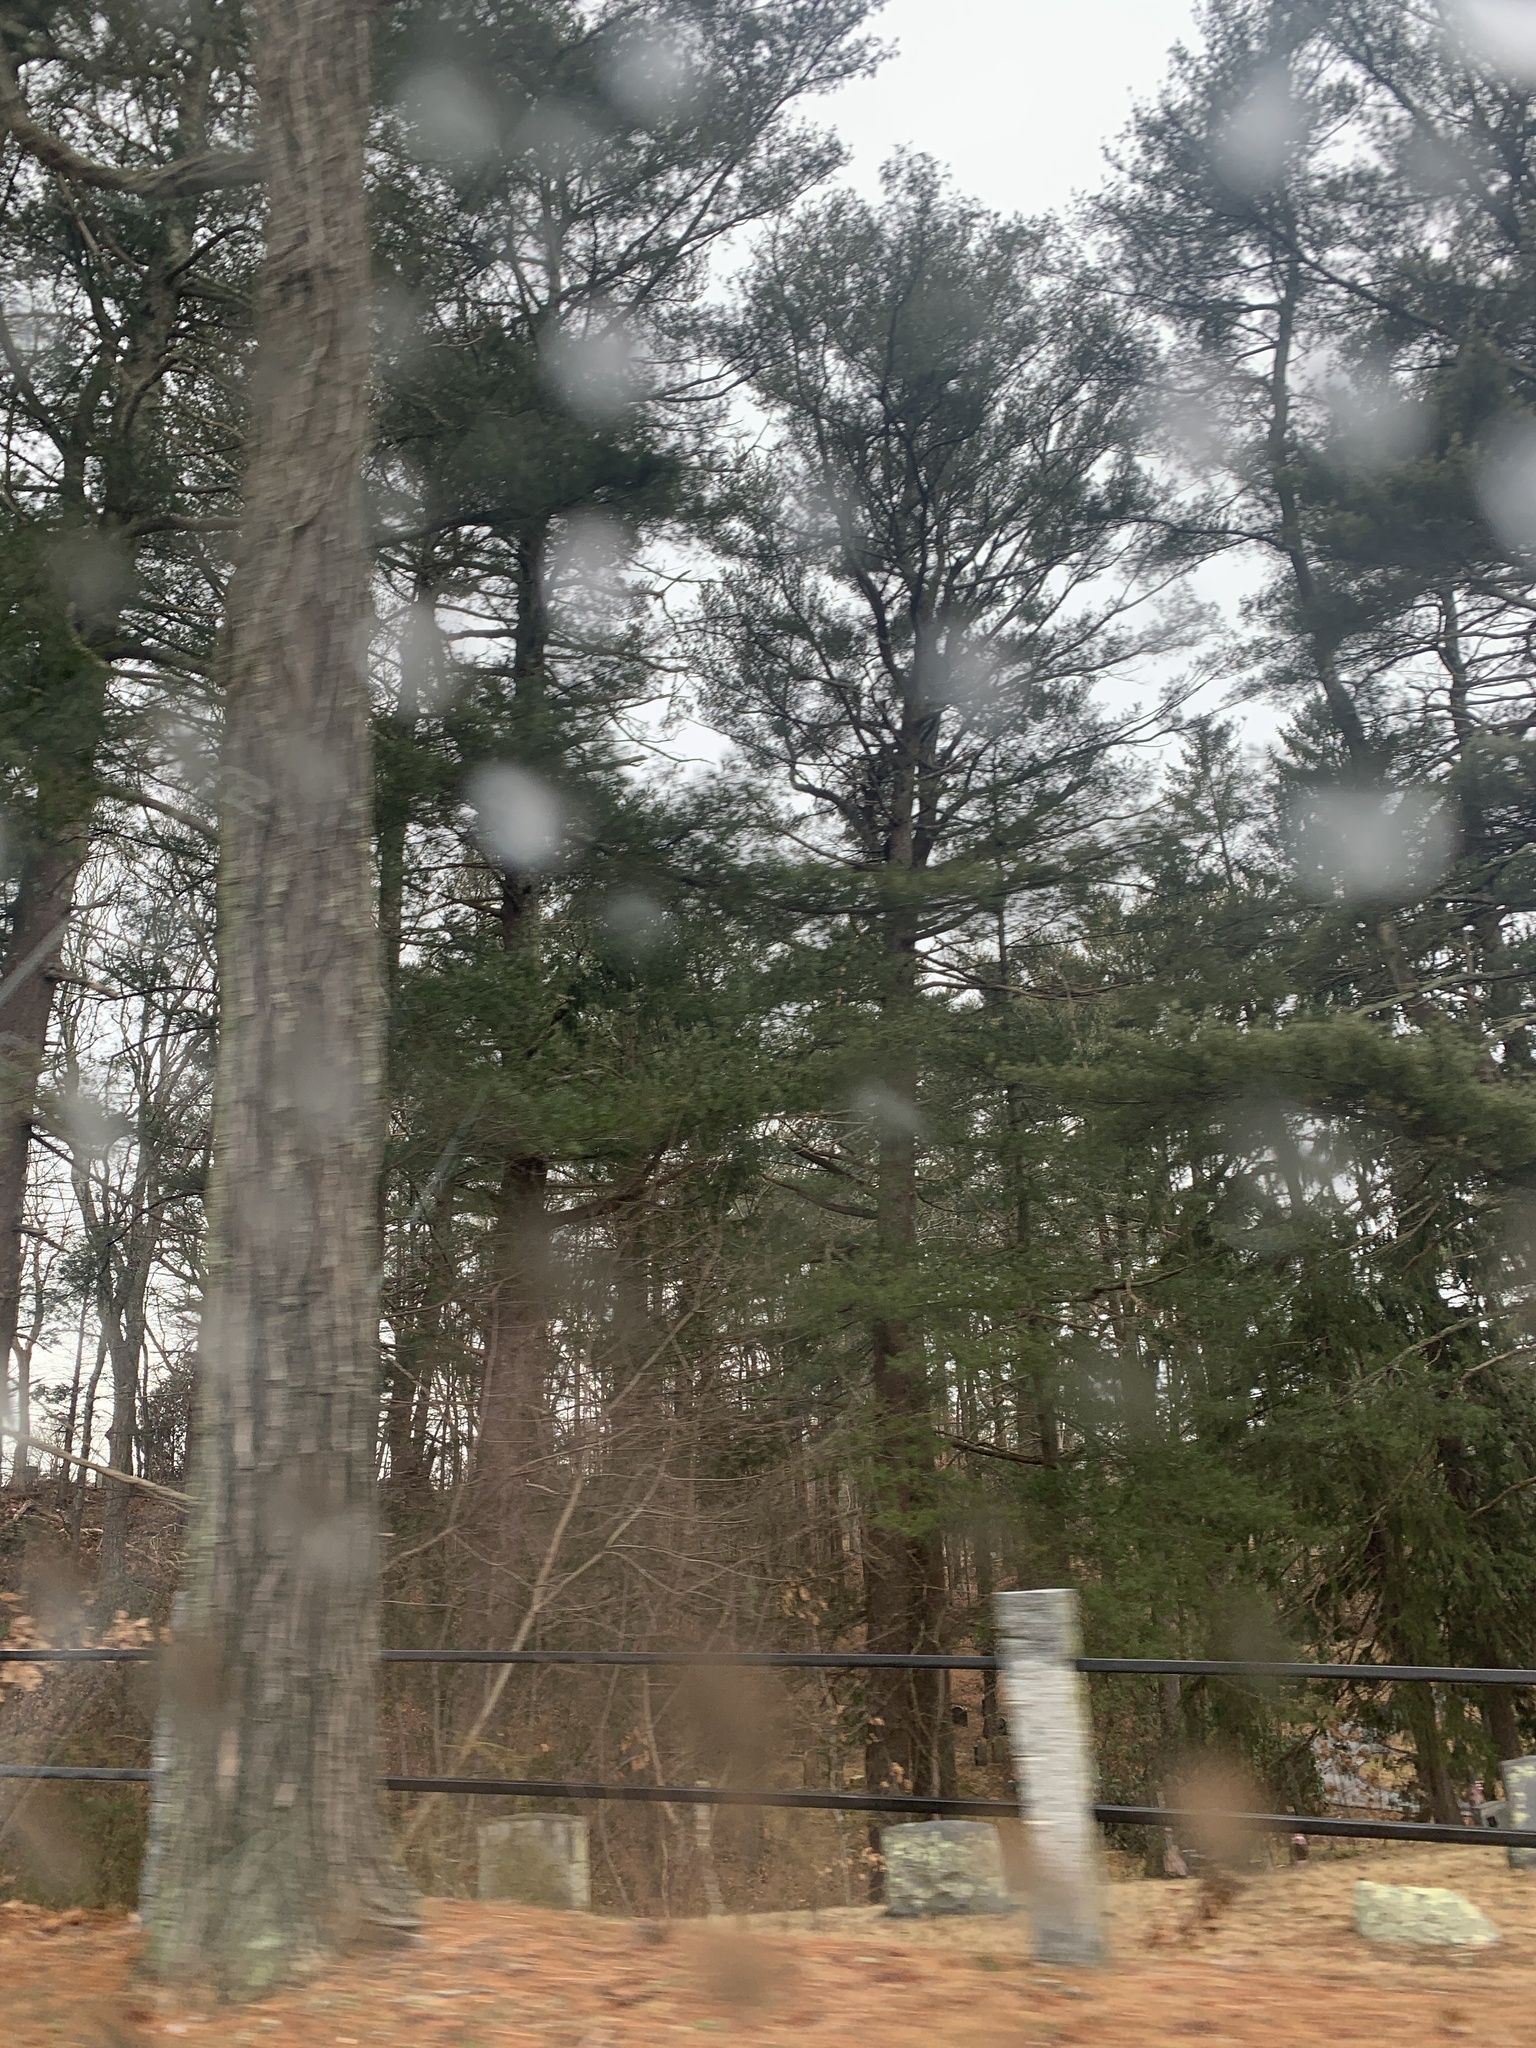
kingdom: Plantae
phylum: Tracheophyta
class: Pinopsida
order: Pinales
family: Pinaceae
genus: Pinus
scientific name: Pinus strobus
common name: Weymouth pine
